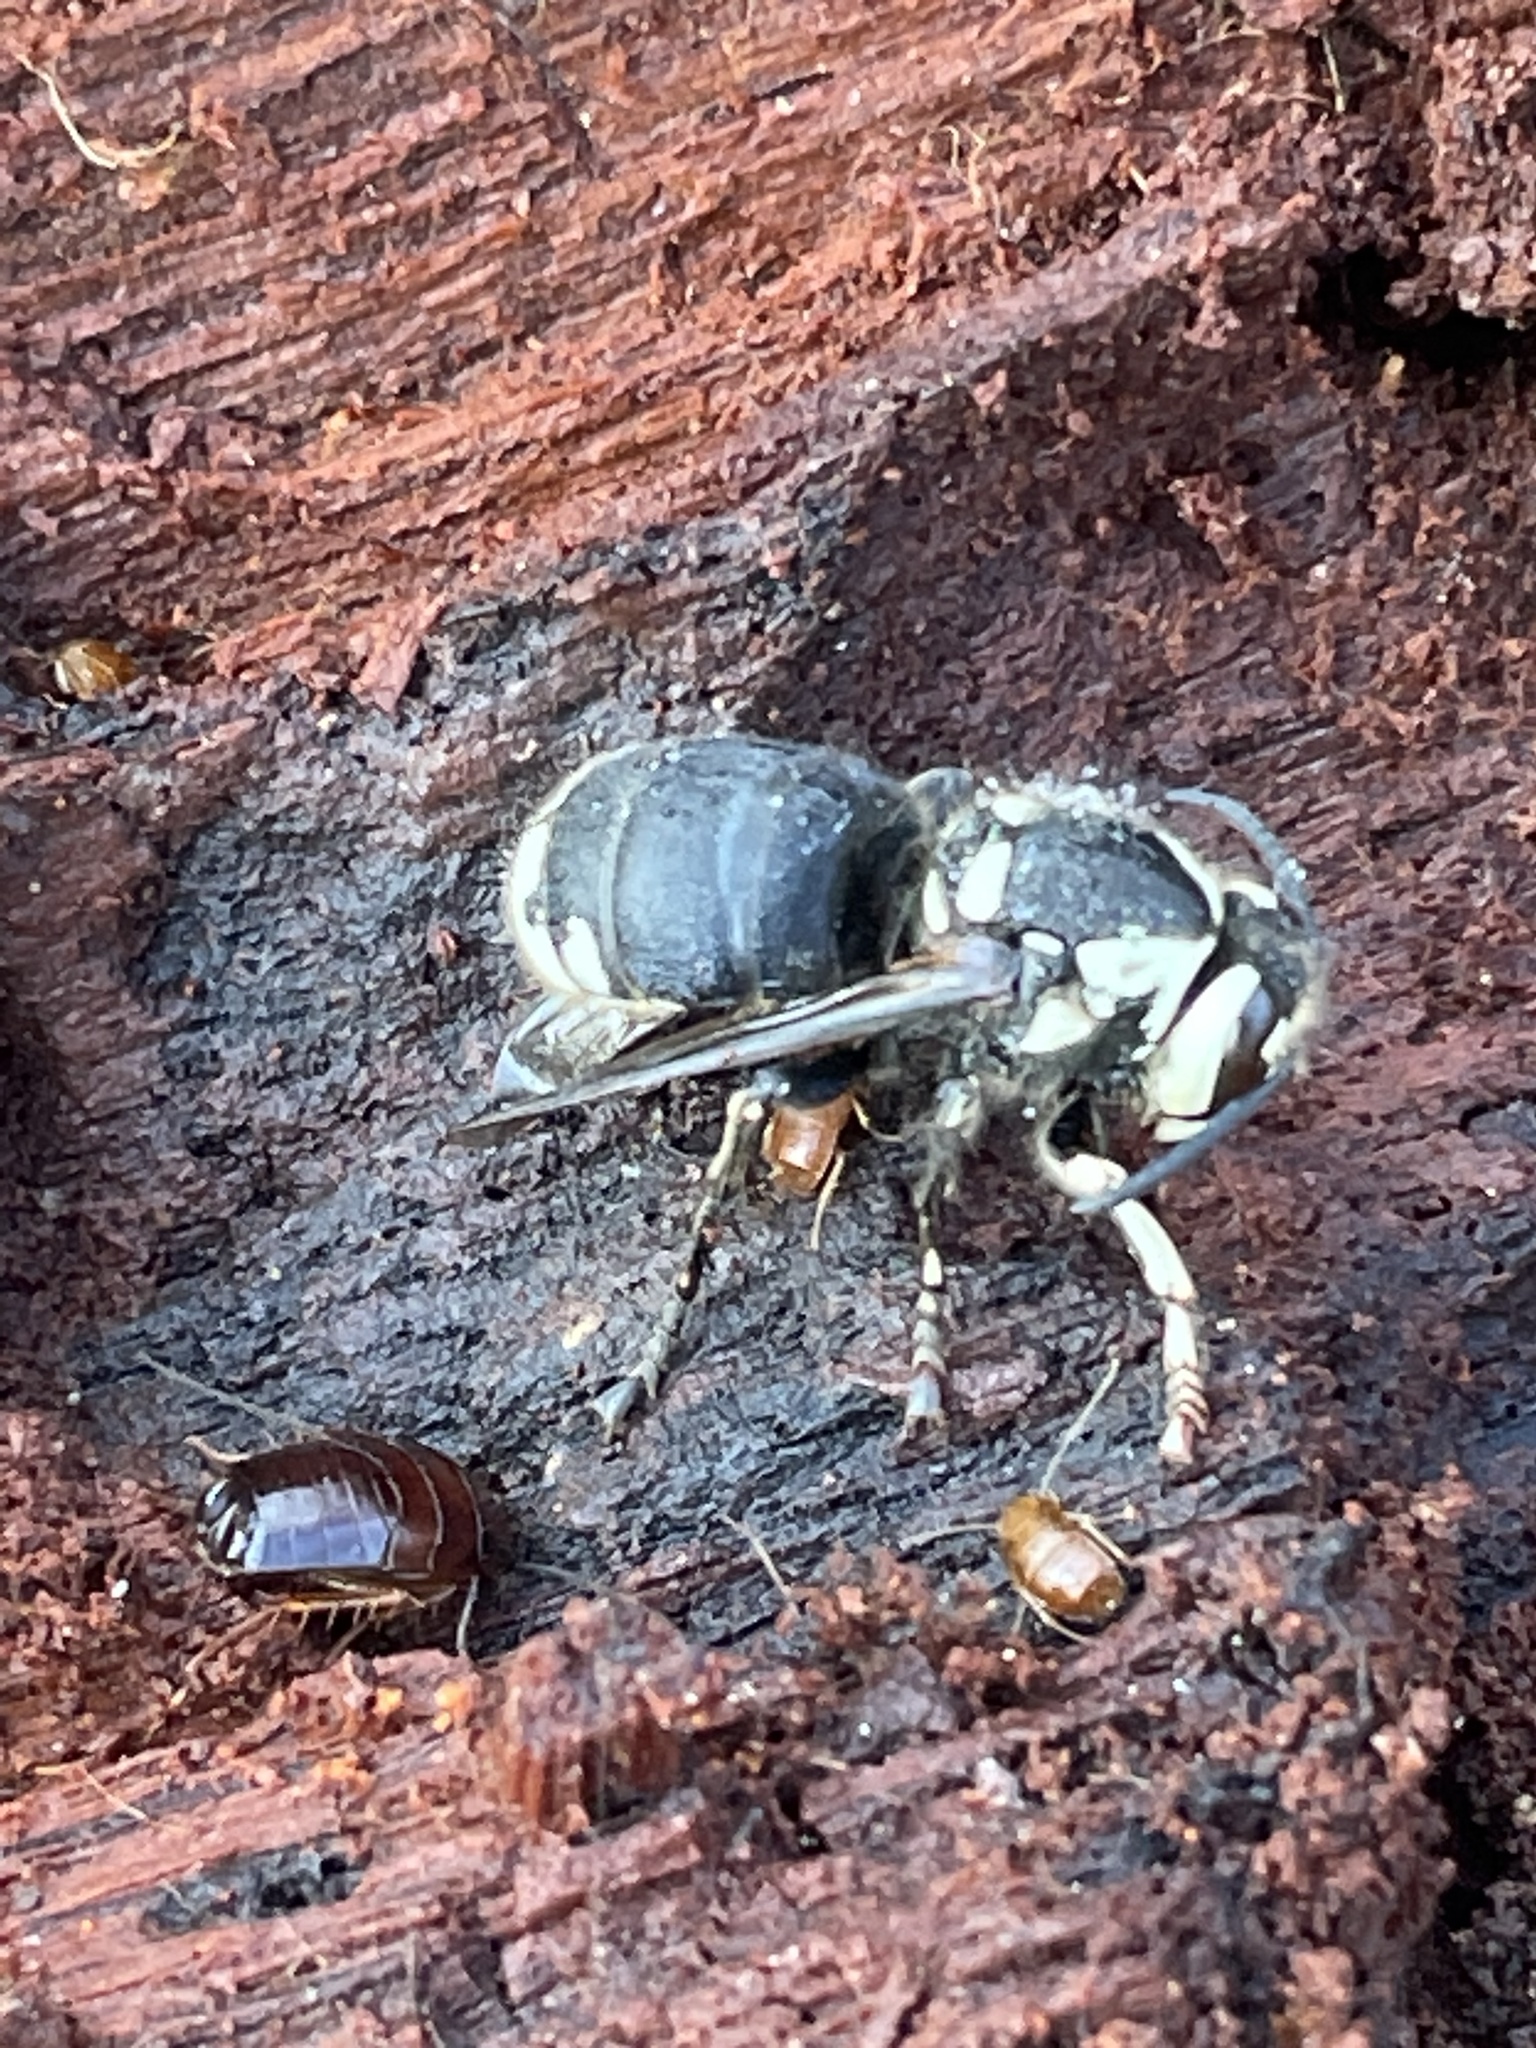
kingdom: Animalia
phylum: Arthropoda
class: Insecta
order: Hymenoptera
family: Vespidae
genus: Dolichovespula
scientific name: Dolichovespula maculata
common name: Bald-faced hornet
